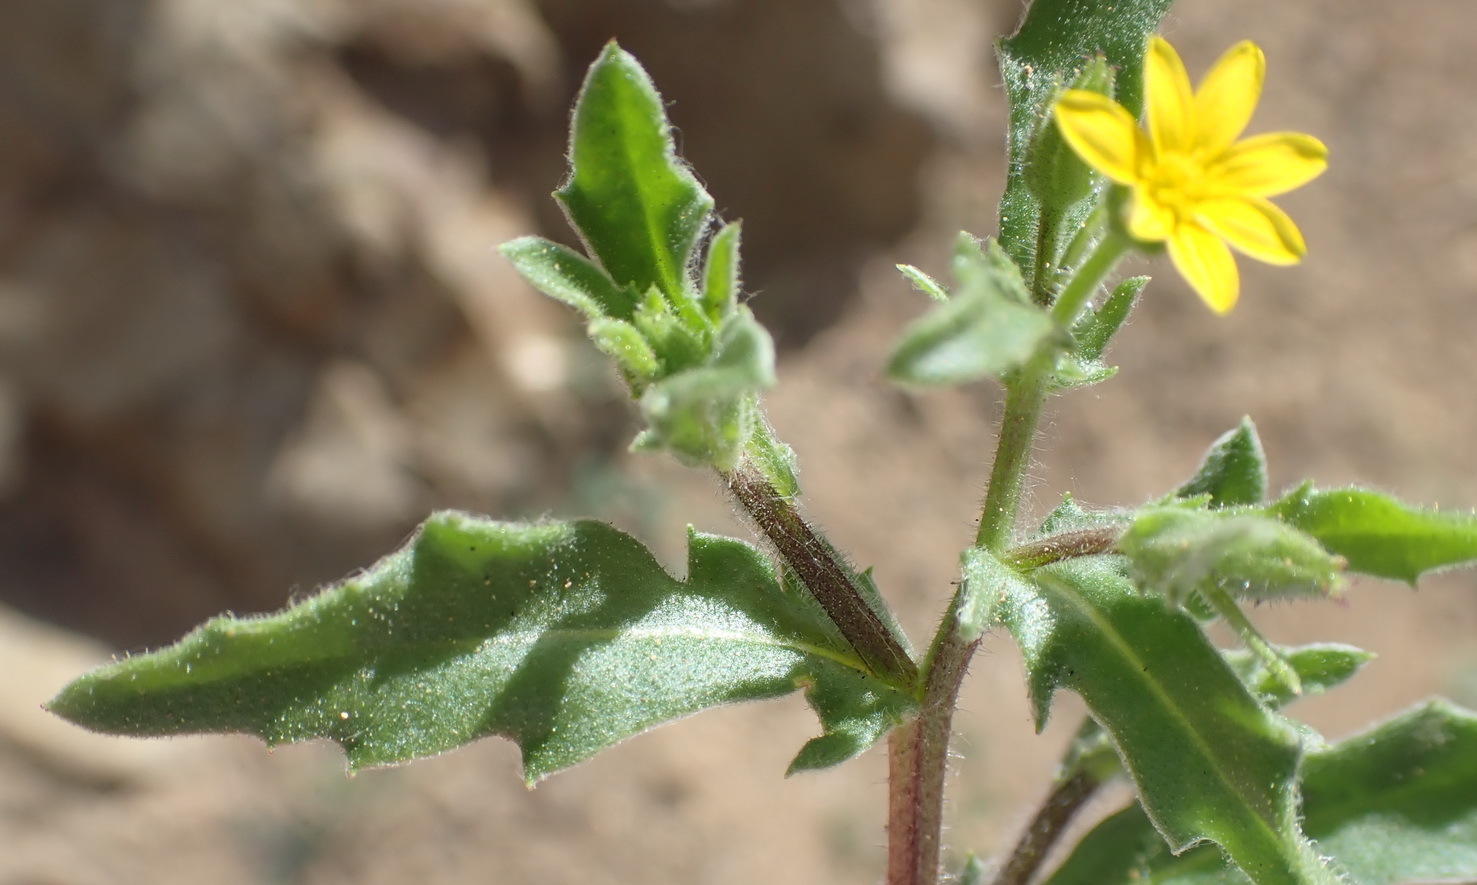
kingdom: Plantae
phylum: Tracheophyta
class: Magnoliopsida
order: Asterales
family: Asteraceae
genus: Osteospermum
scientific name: Osteospermum calendulaceum
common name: Stinking roger
